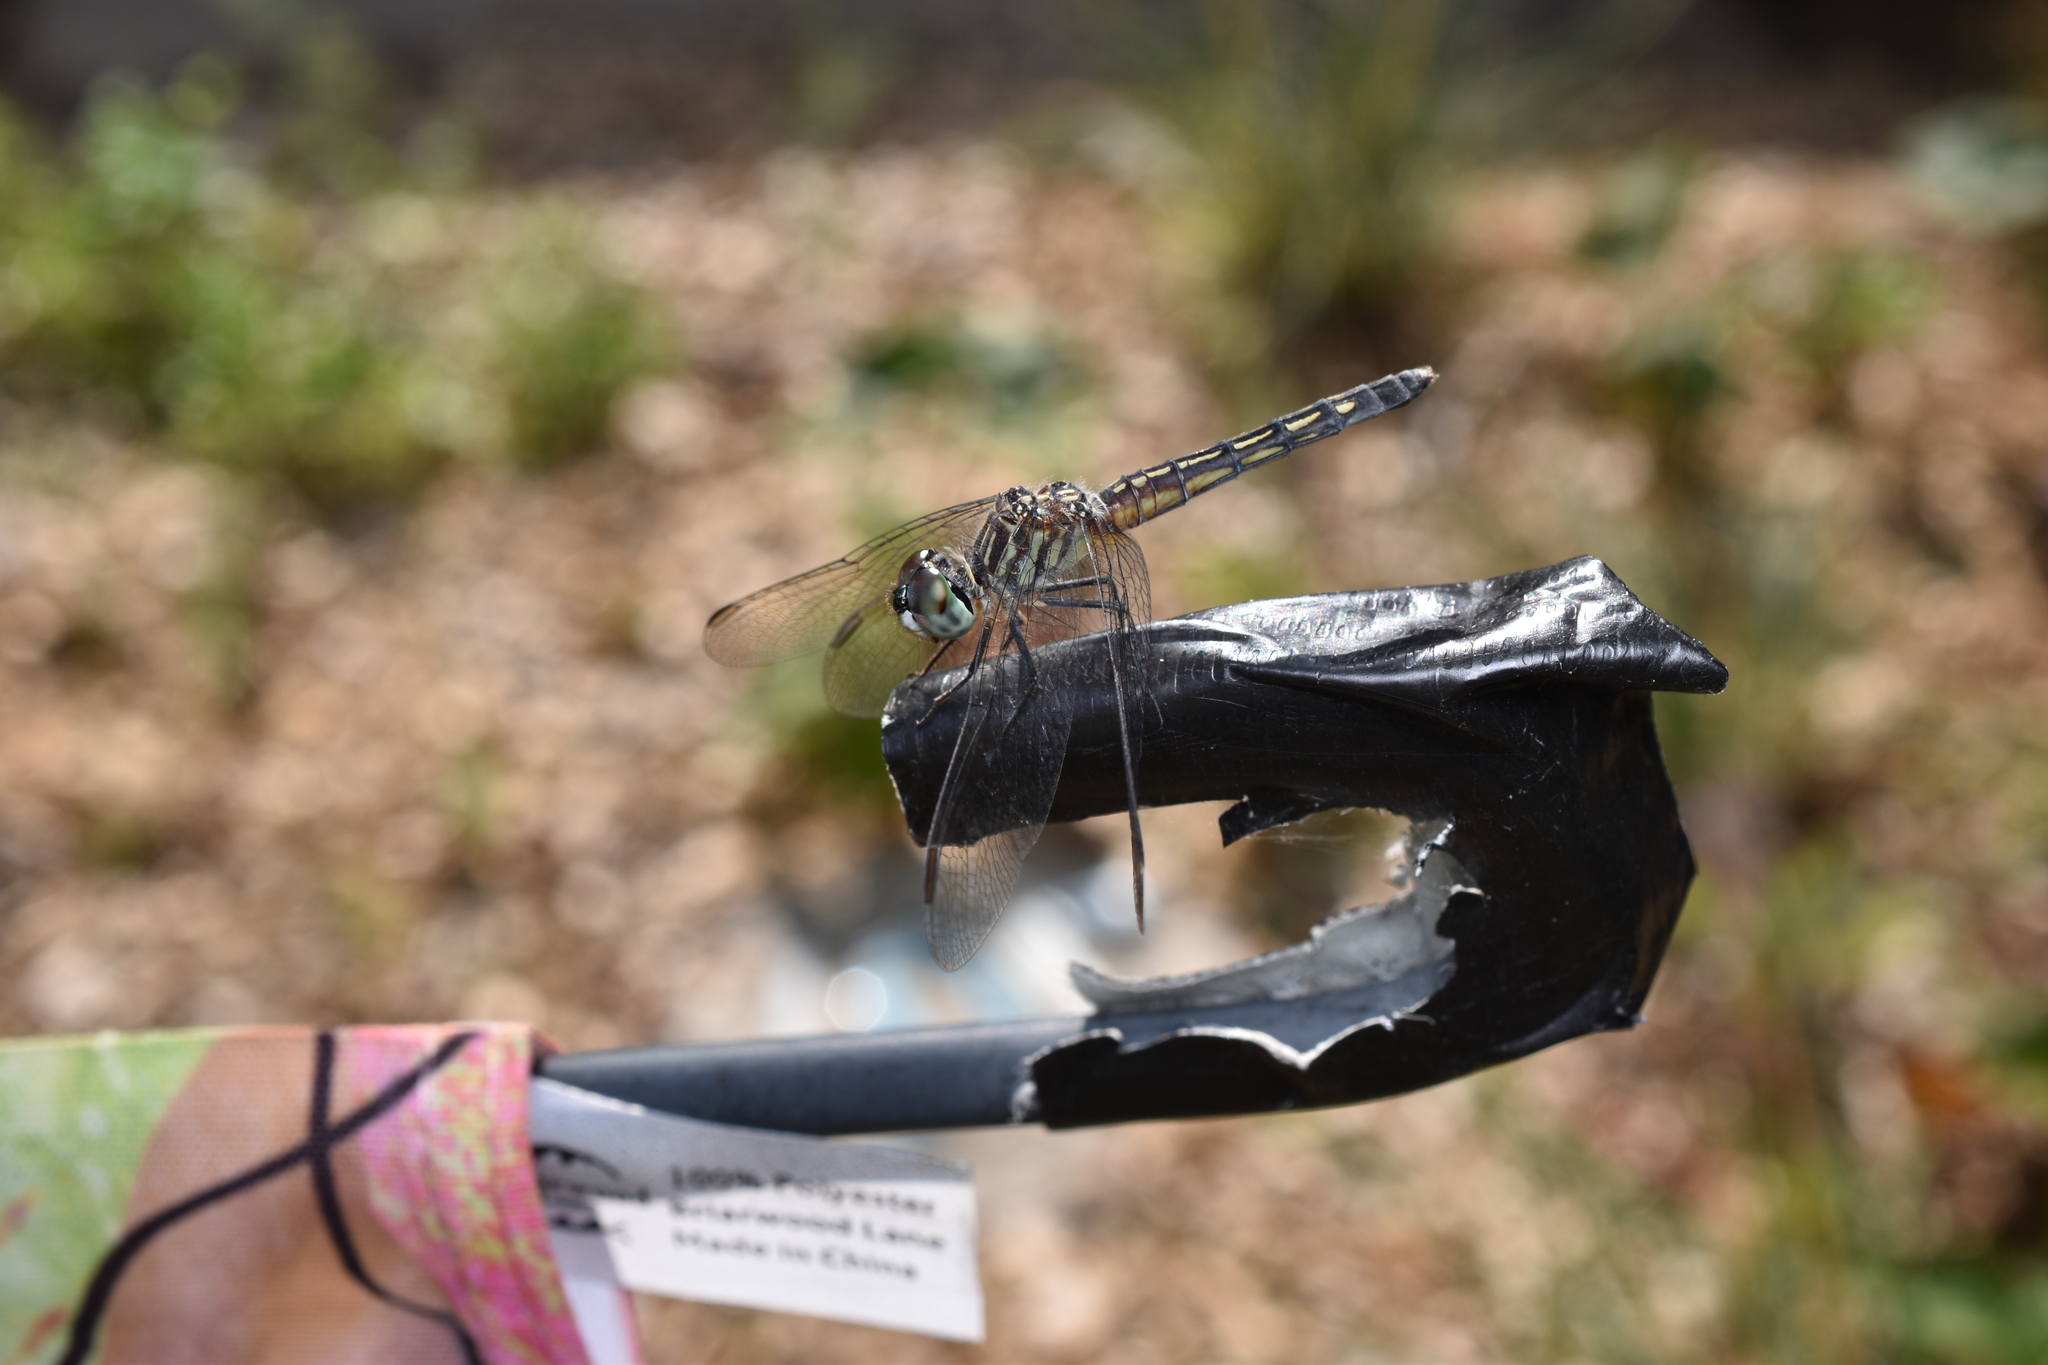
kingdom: Animalia
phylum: Arthropoda
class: Insecta
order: Odonata
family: Libellulidae
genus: Pachydiplax
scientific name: Pachydiplax longipennis
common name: Blue dasher
